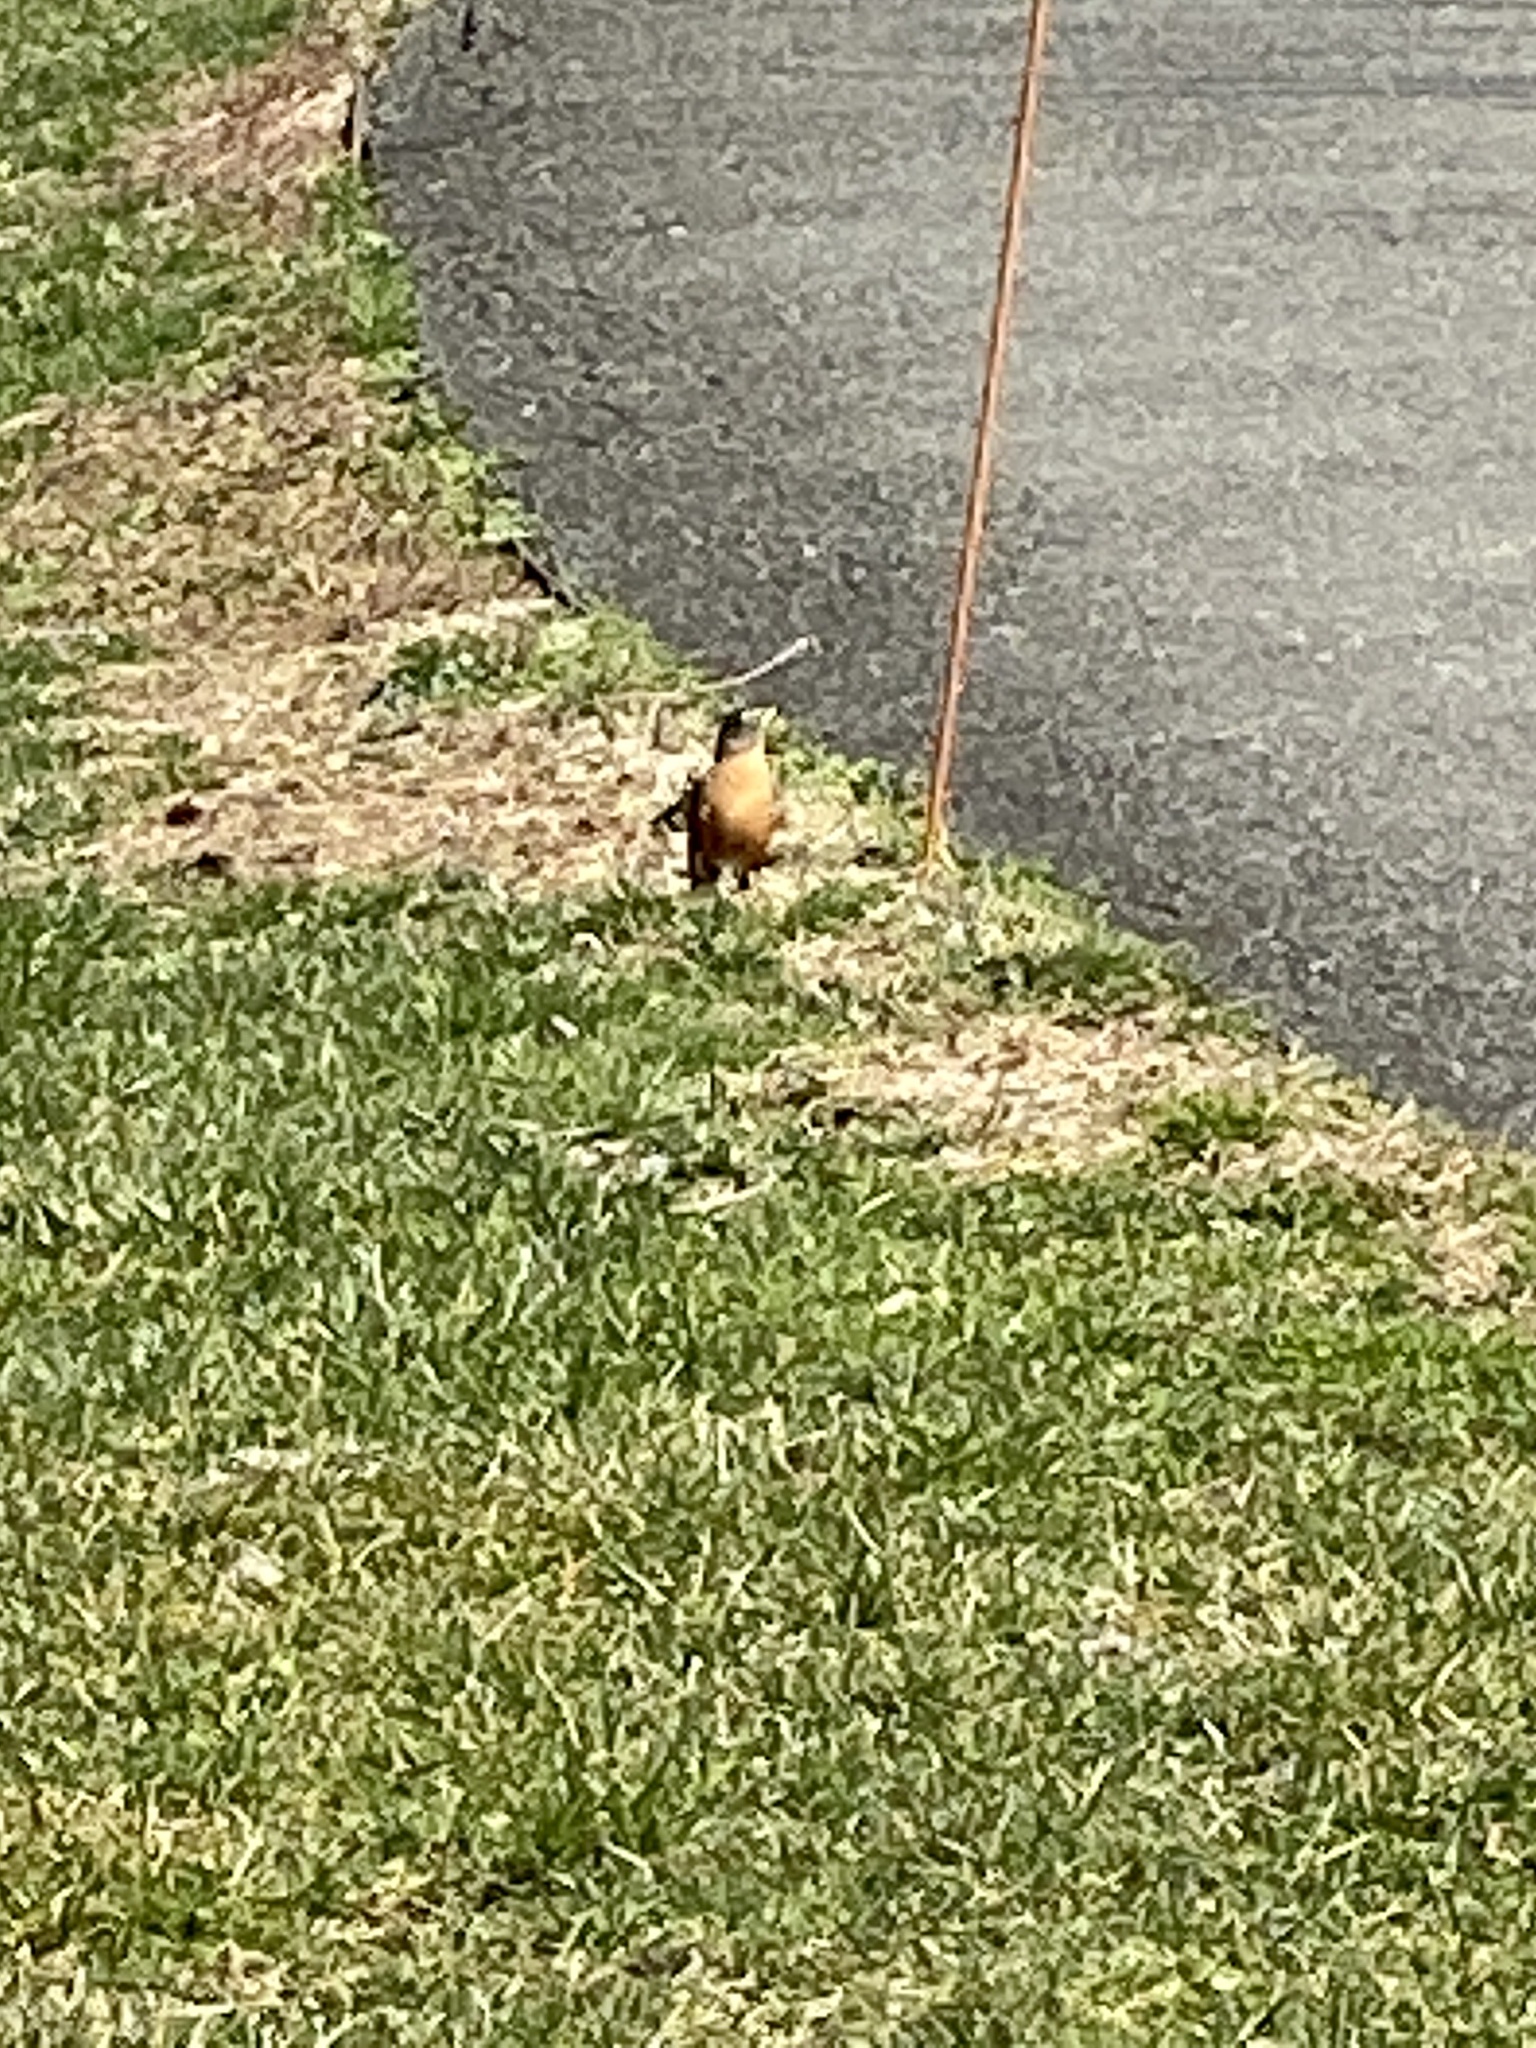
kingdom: Animalia
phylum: Chordata
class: Aves
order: Passeriformes
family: Turdidae
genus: Turdus
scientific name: Turdus migratorius
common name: American robin
